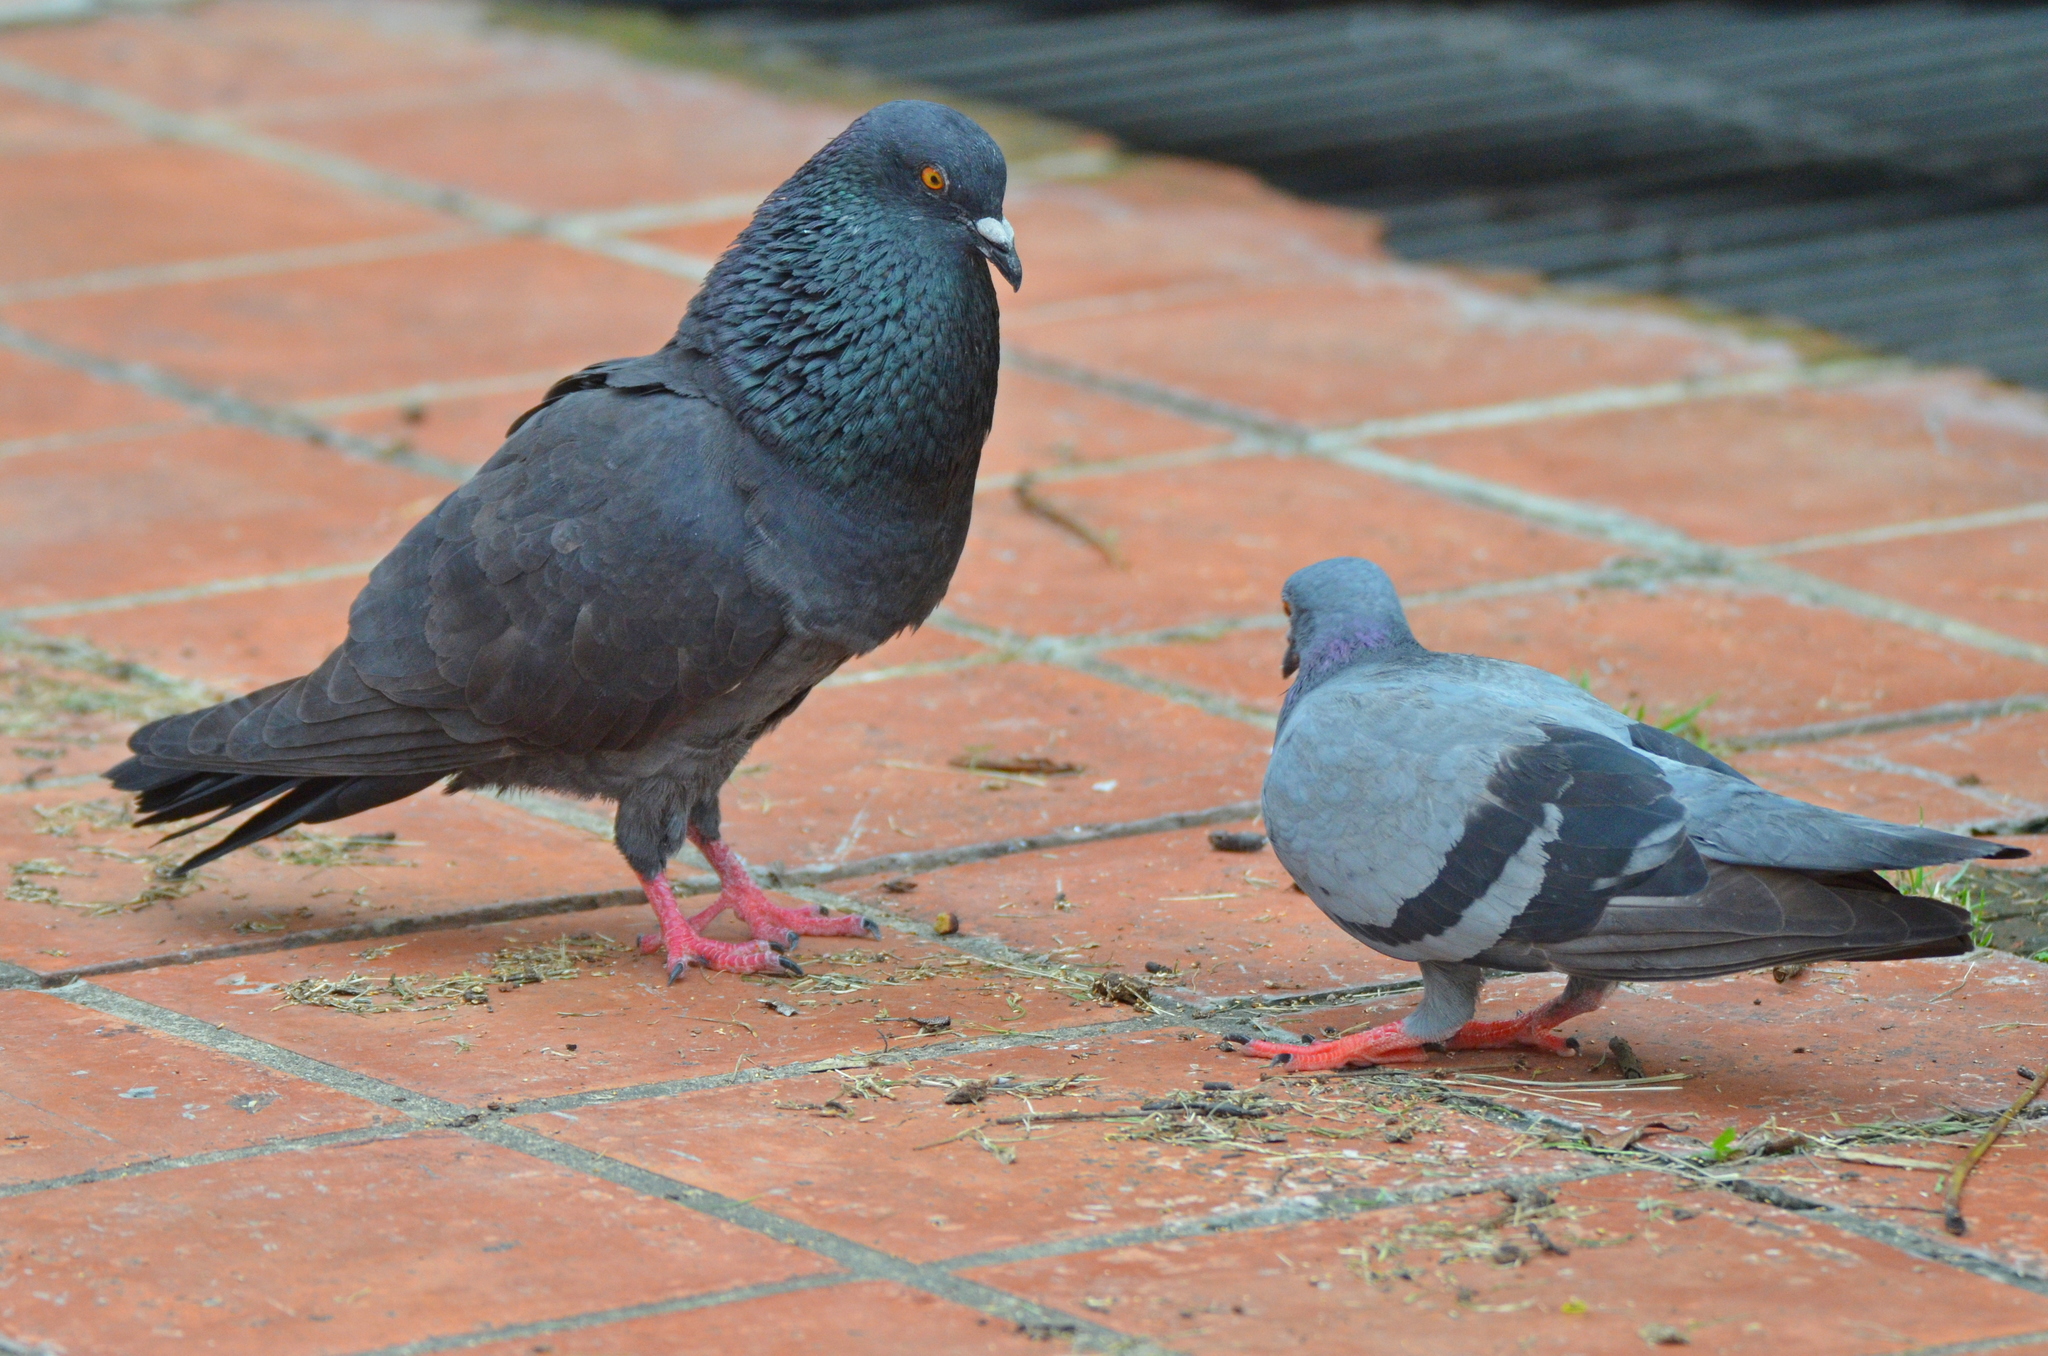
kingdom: Animalia
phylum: Chordata
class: Aves
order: Columbiformes
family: Columbidae
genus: Columba
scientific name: Columba livia
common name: Rock pigeon
